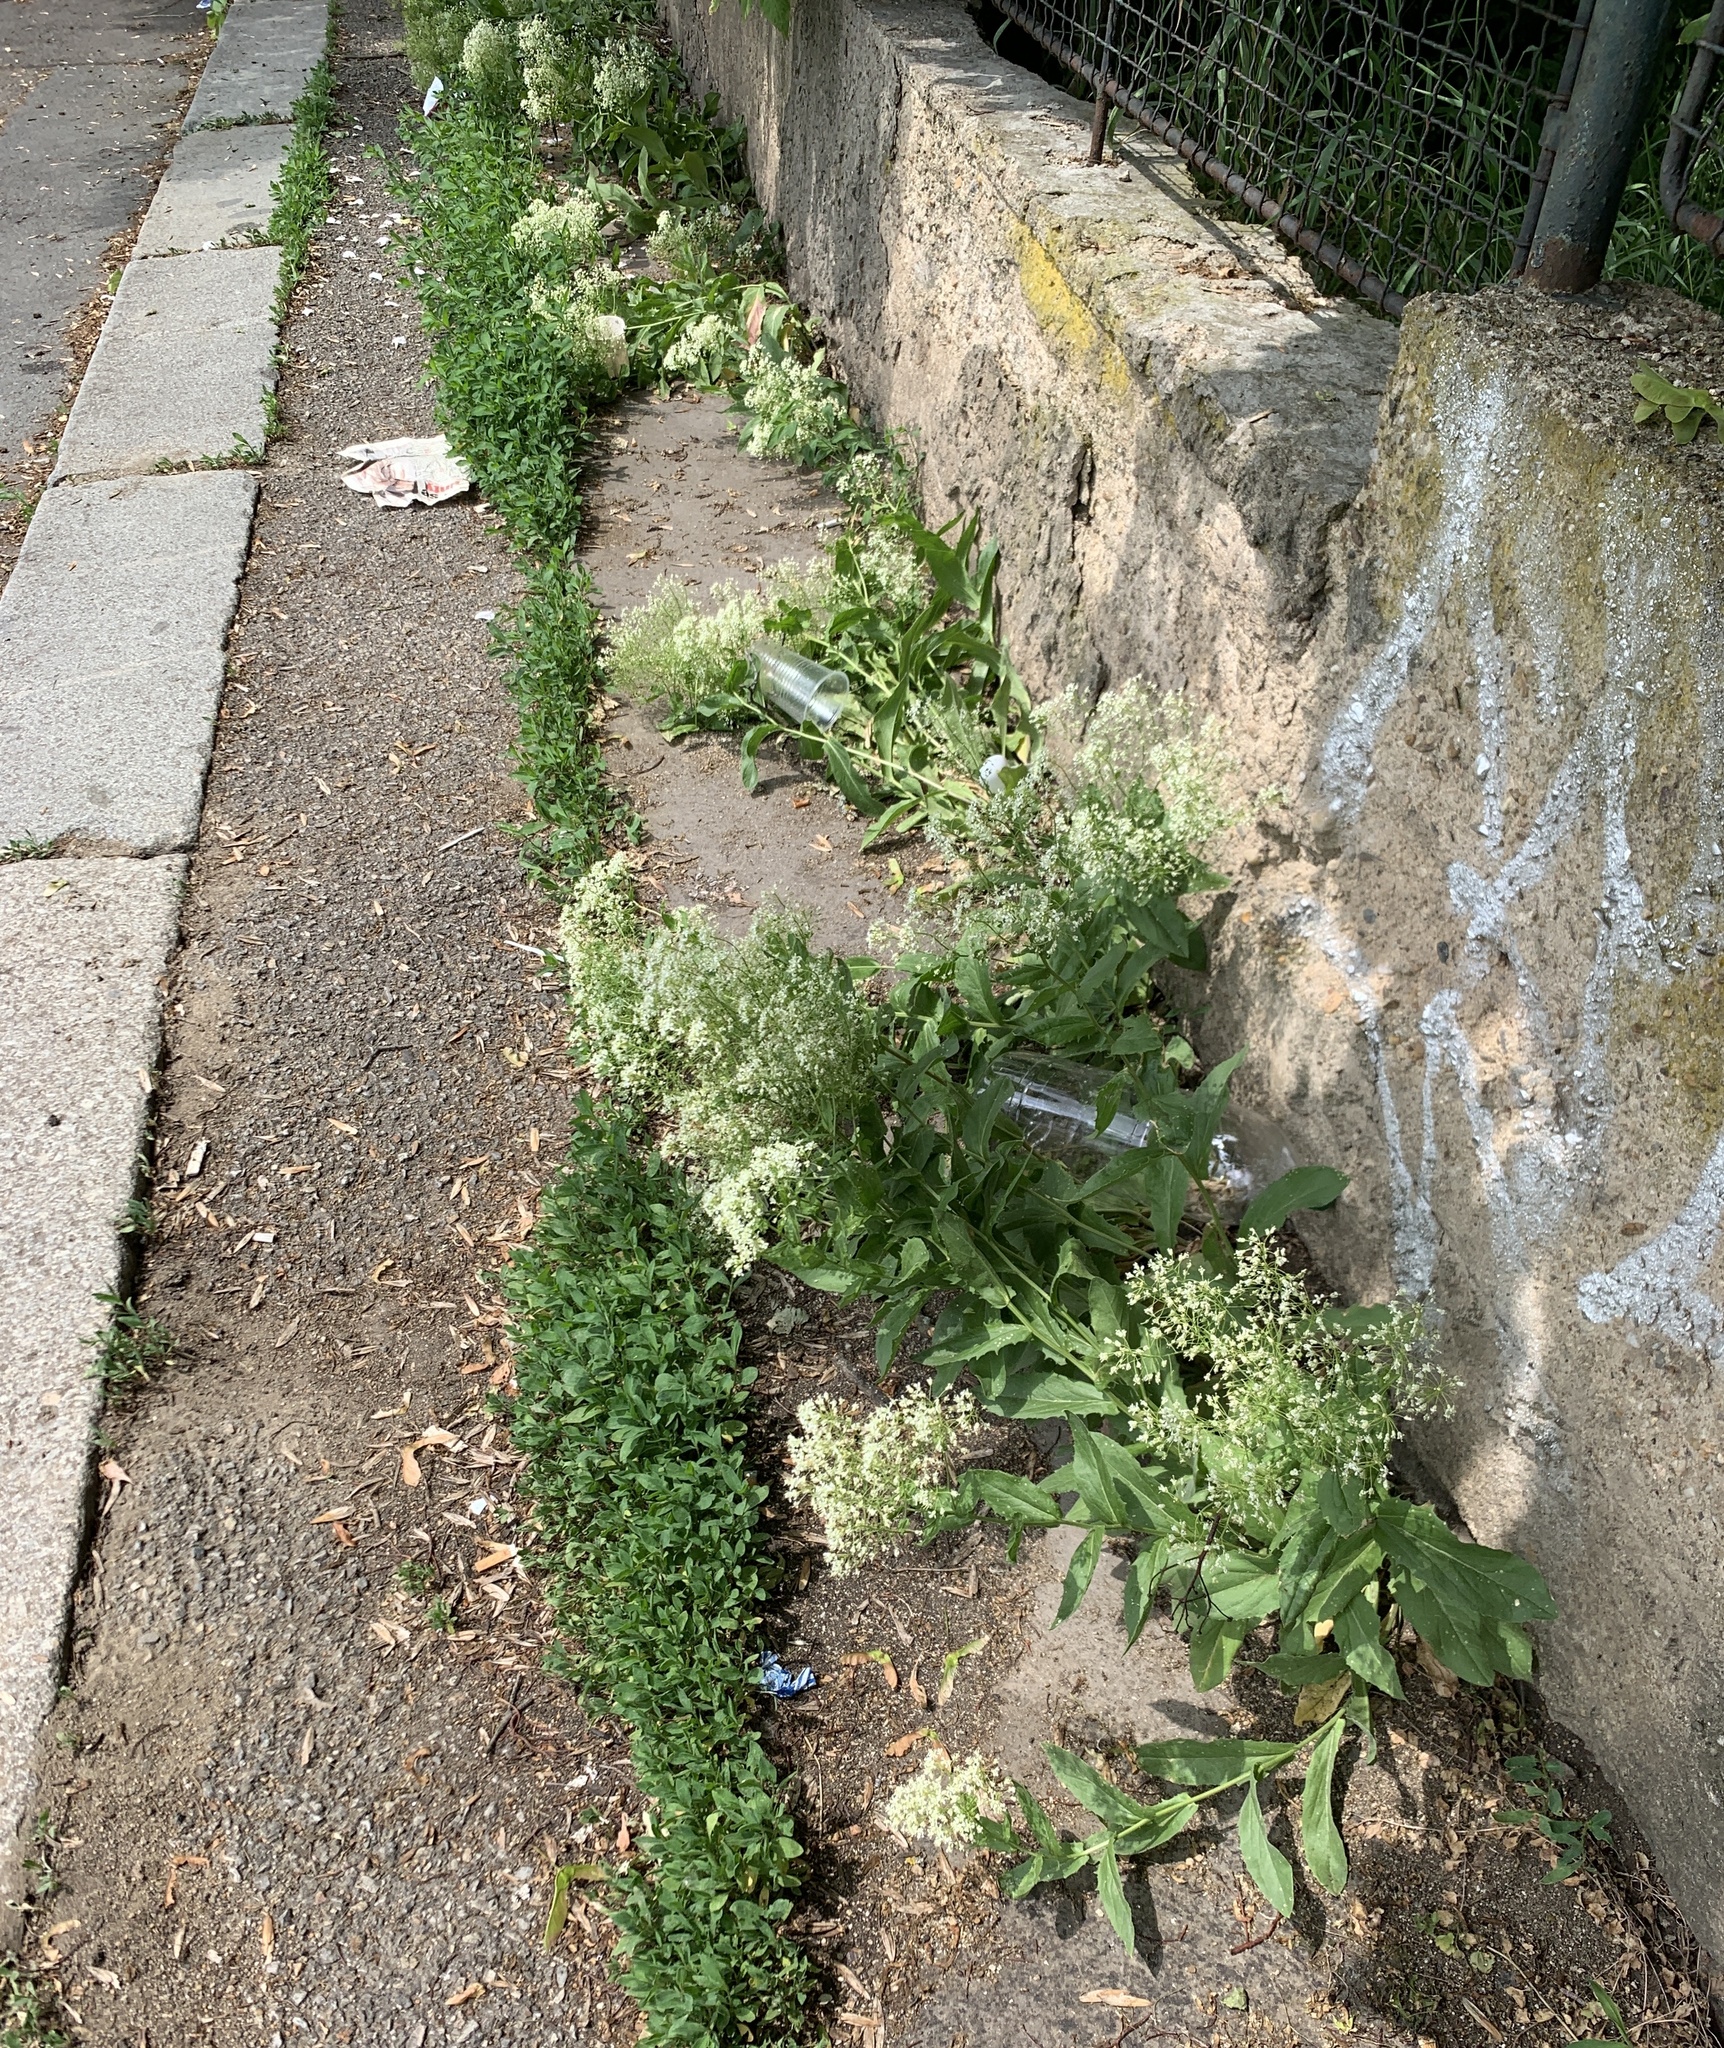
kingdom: Plantae
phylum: Tracheophyta
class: Magnoliopsida
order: Brassicales
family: Brassicaceae
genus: Lepidium
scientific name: Lepidium draba
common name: Hoary cress
